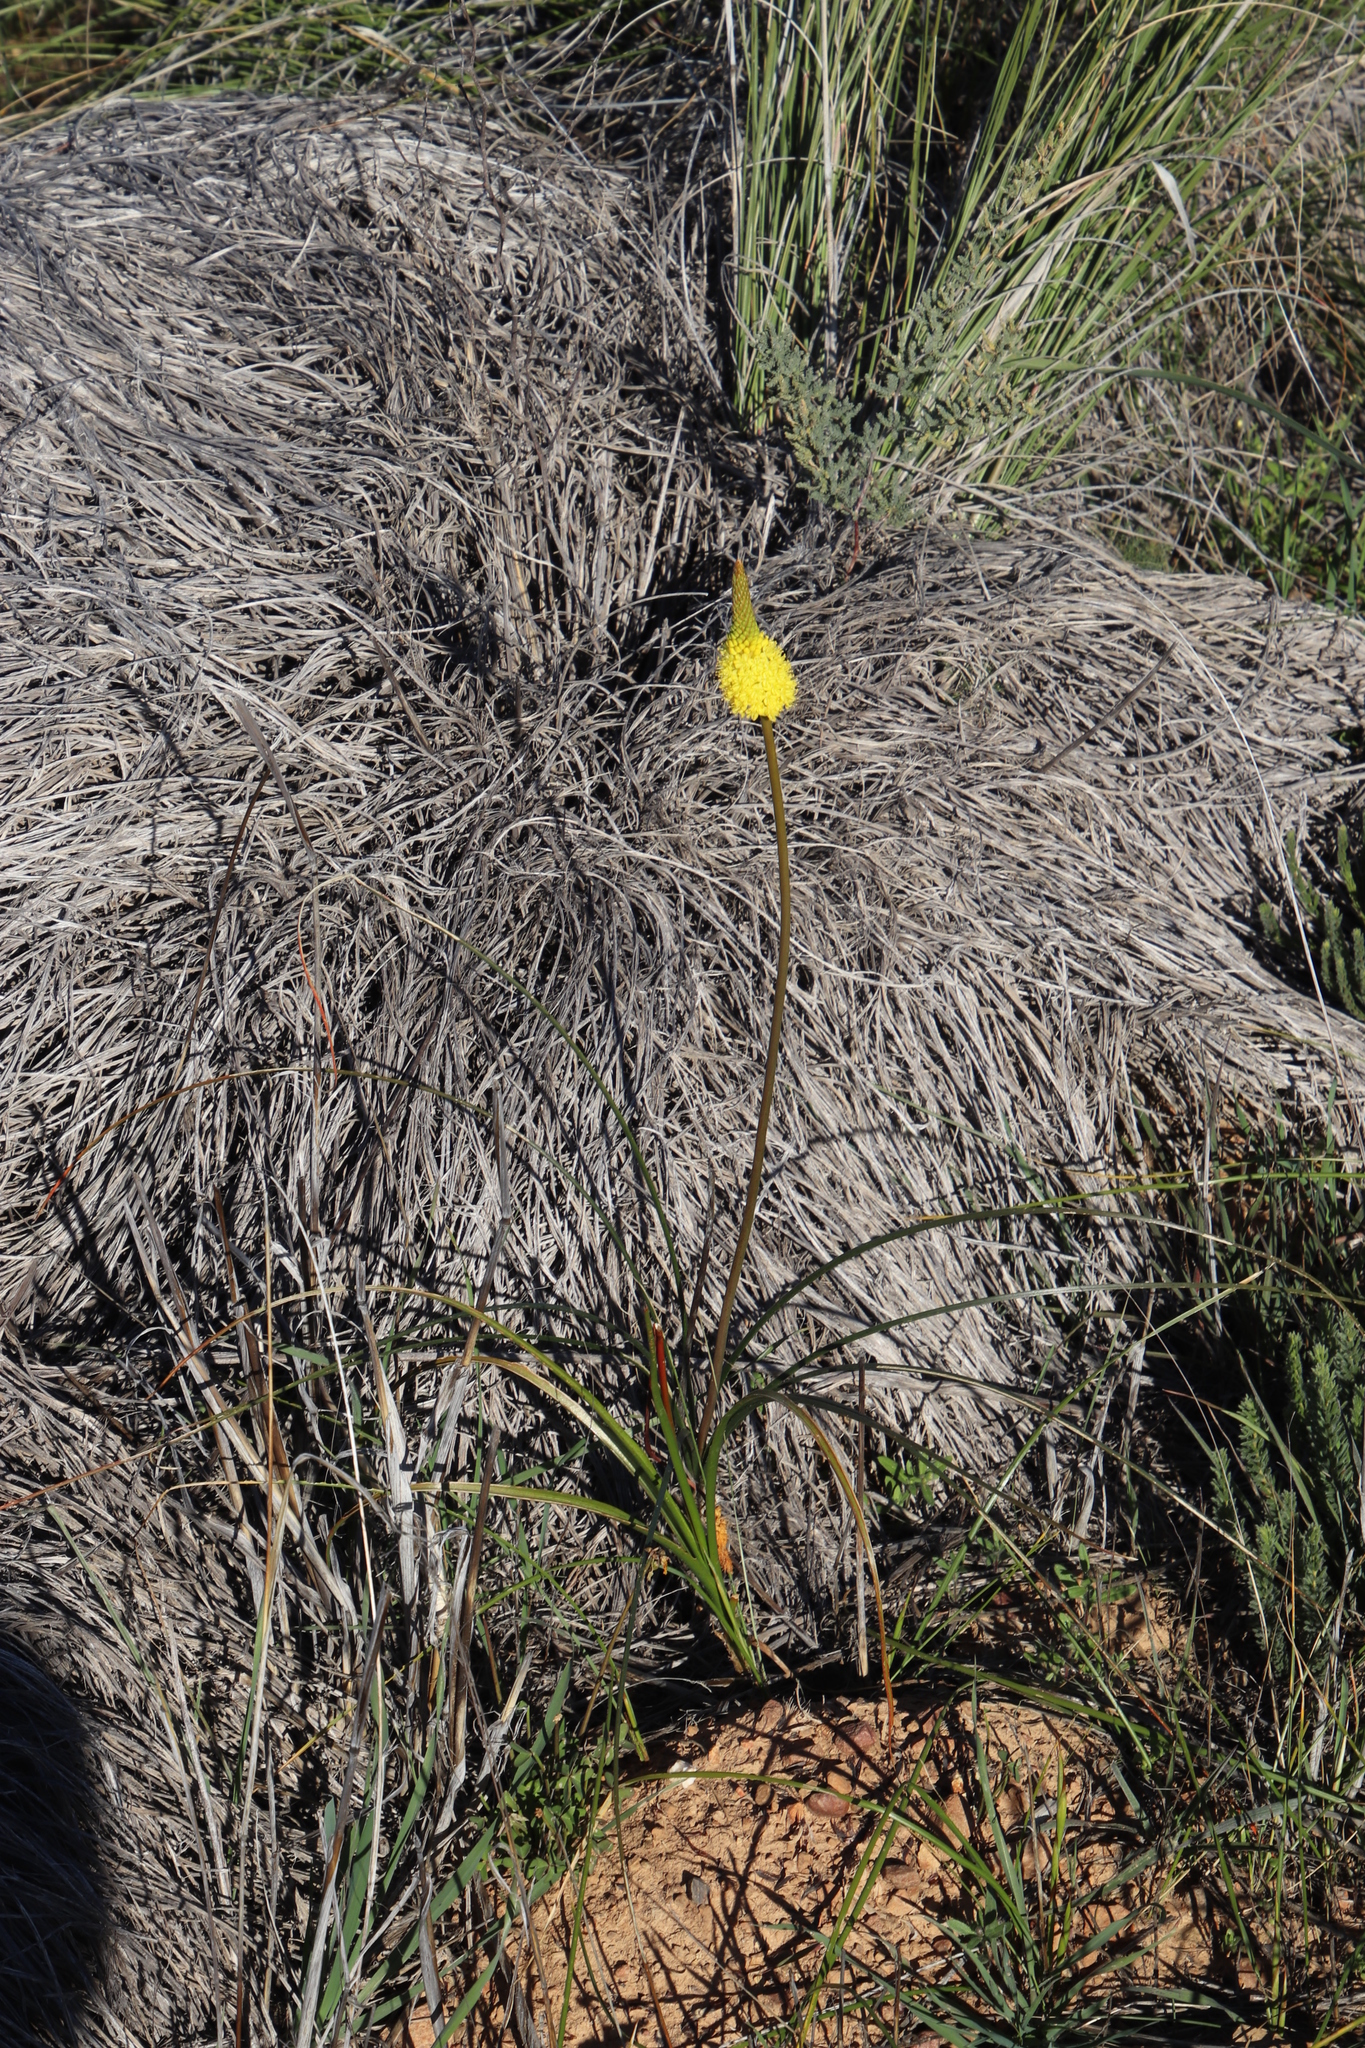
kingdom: Plantae
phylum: Tracheophyta
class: Liliopsida
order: Asparagales
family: Asphodelaceae
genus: Bulbinella
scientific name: Bulbinella nutans
